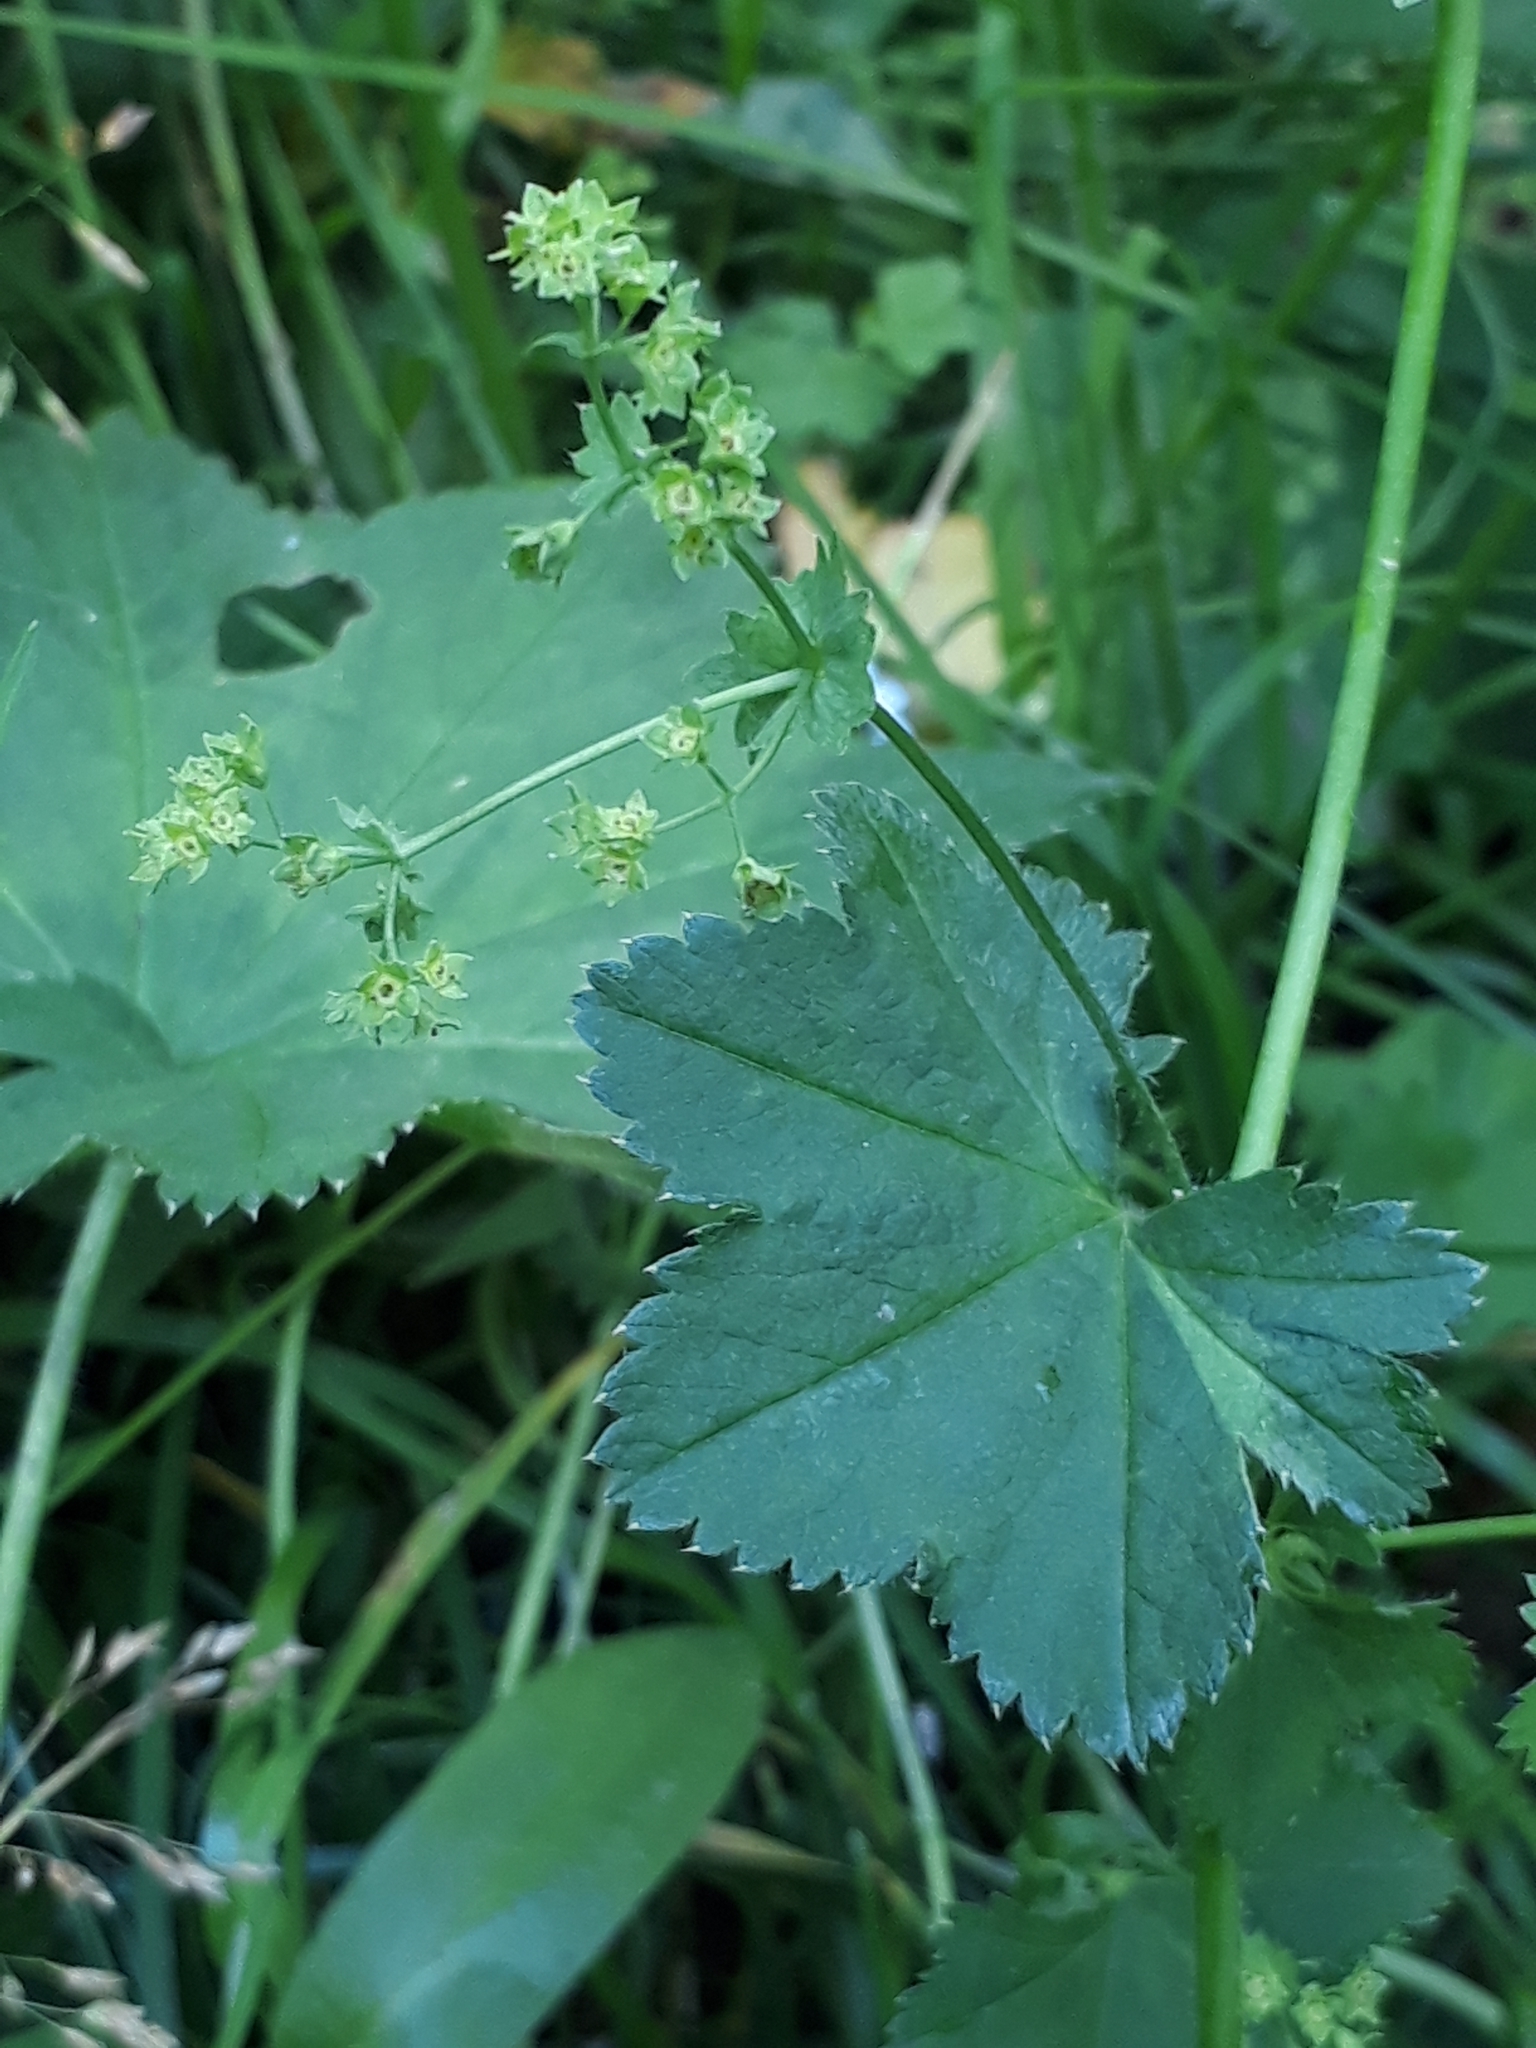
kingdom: Plantae
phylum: Tracheophyta
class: Magnoliopsida
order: Rosales
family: Rosaceae
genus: Alchemilla
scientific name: Alchemilla
